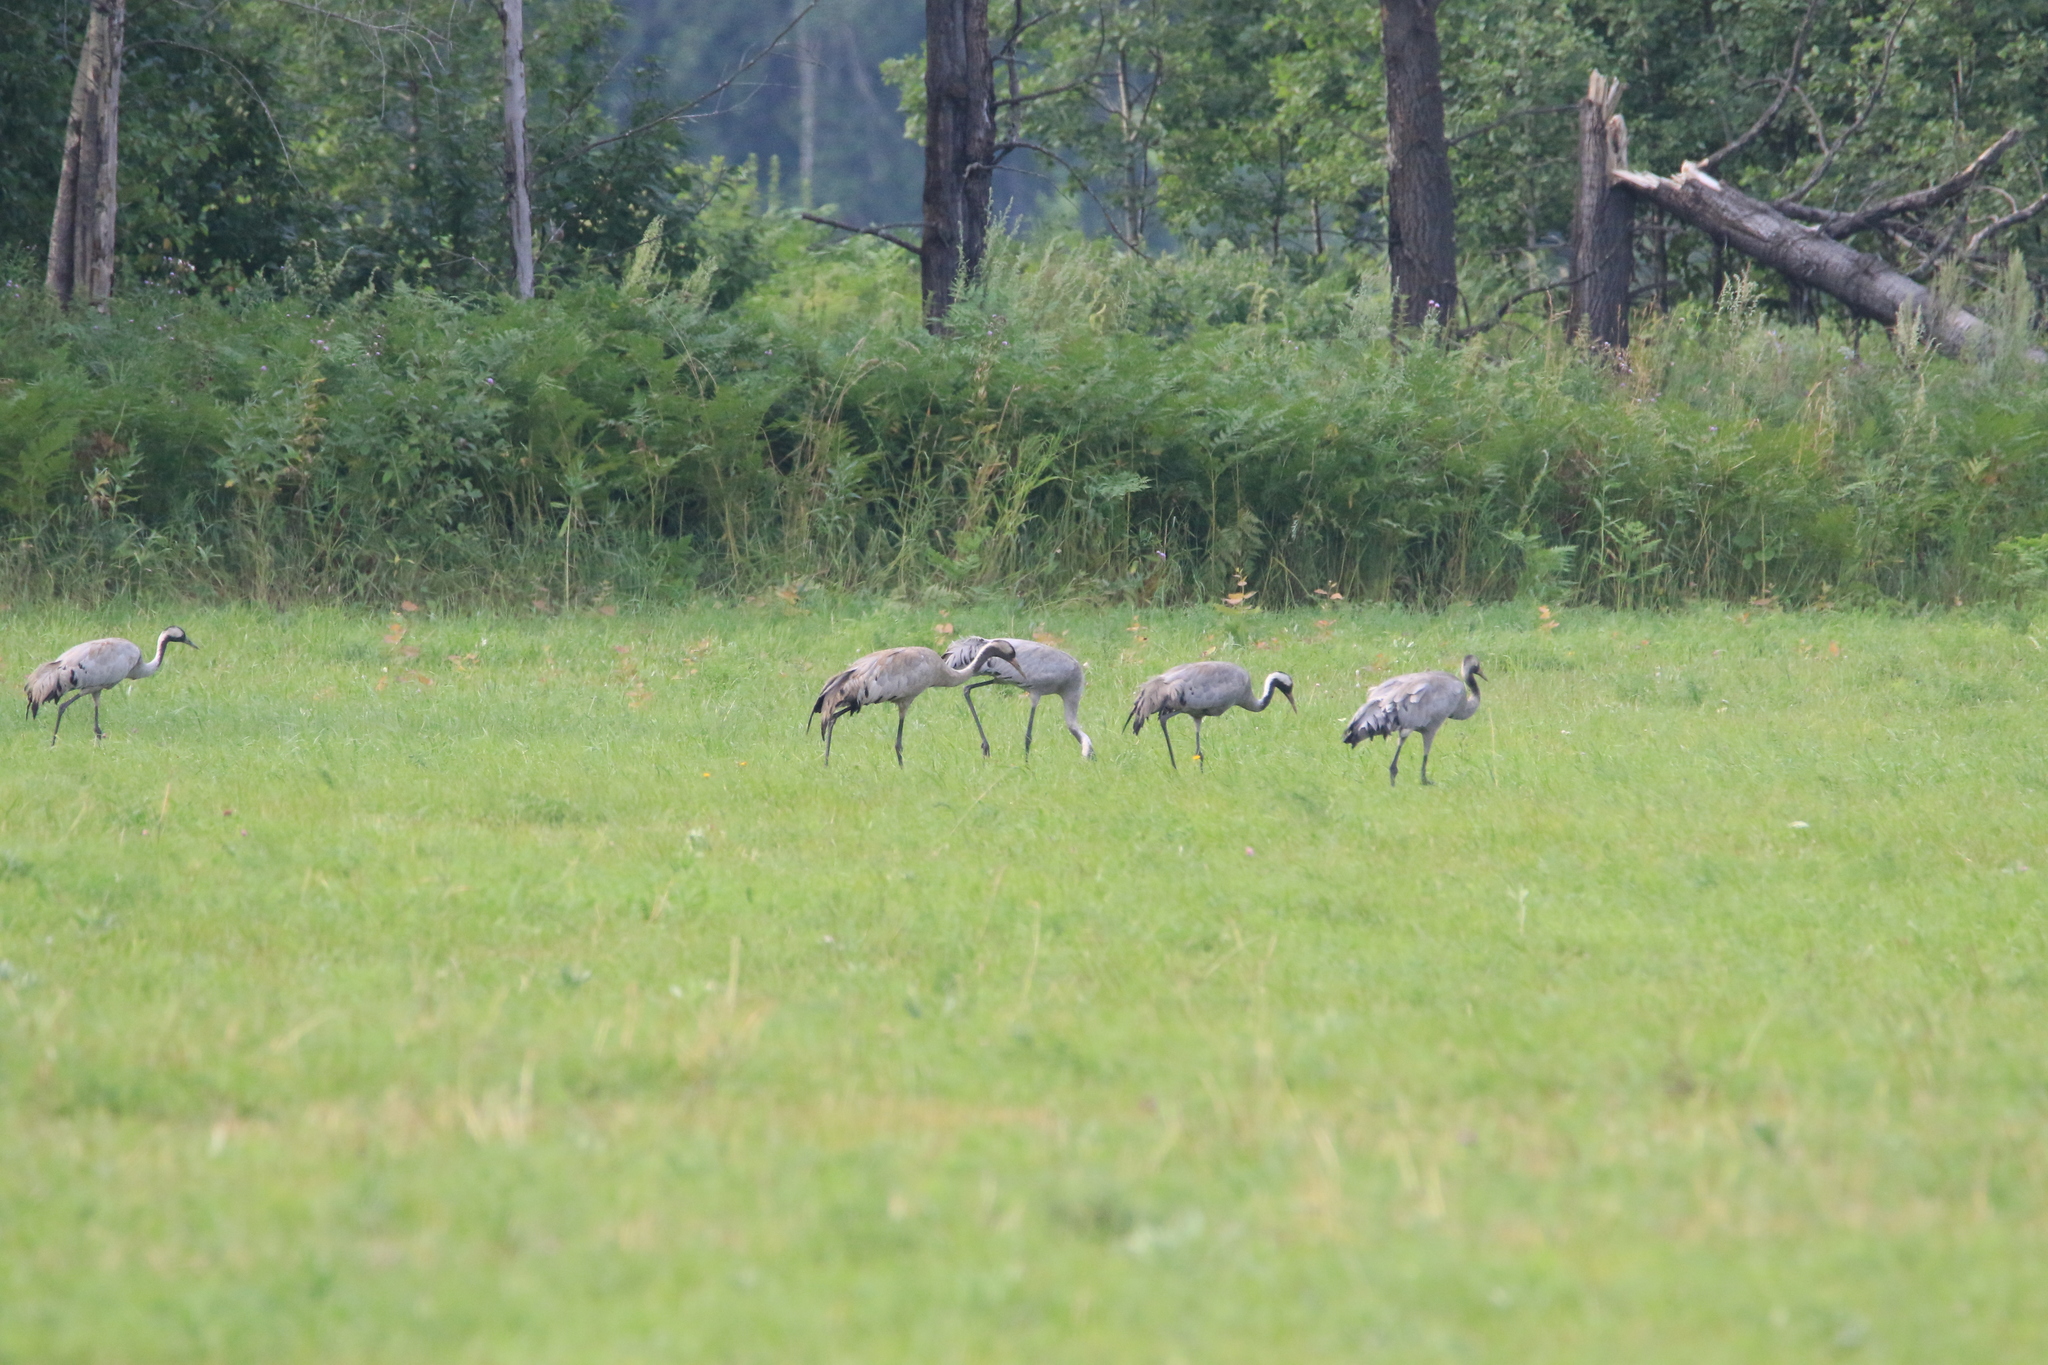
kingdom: Animalia
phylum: Chordata
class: Aves
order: Gruiformes
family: Gruidae
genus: Grus
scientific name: Grus grus
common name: Common crane
